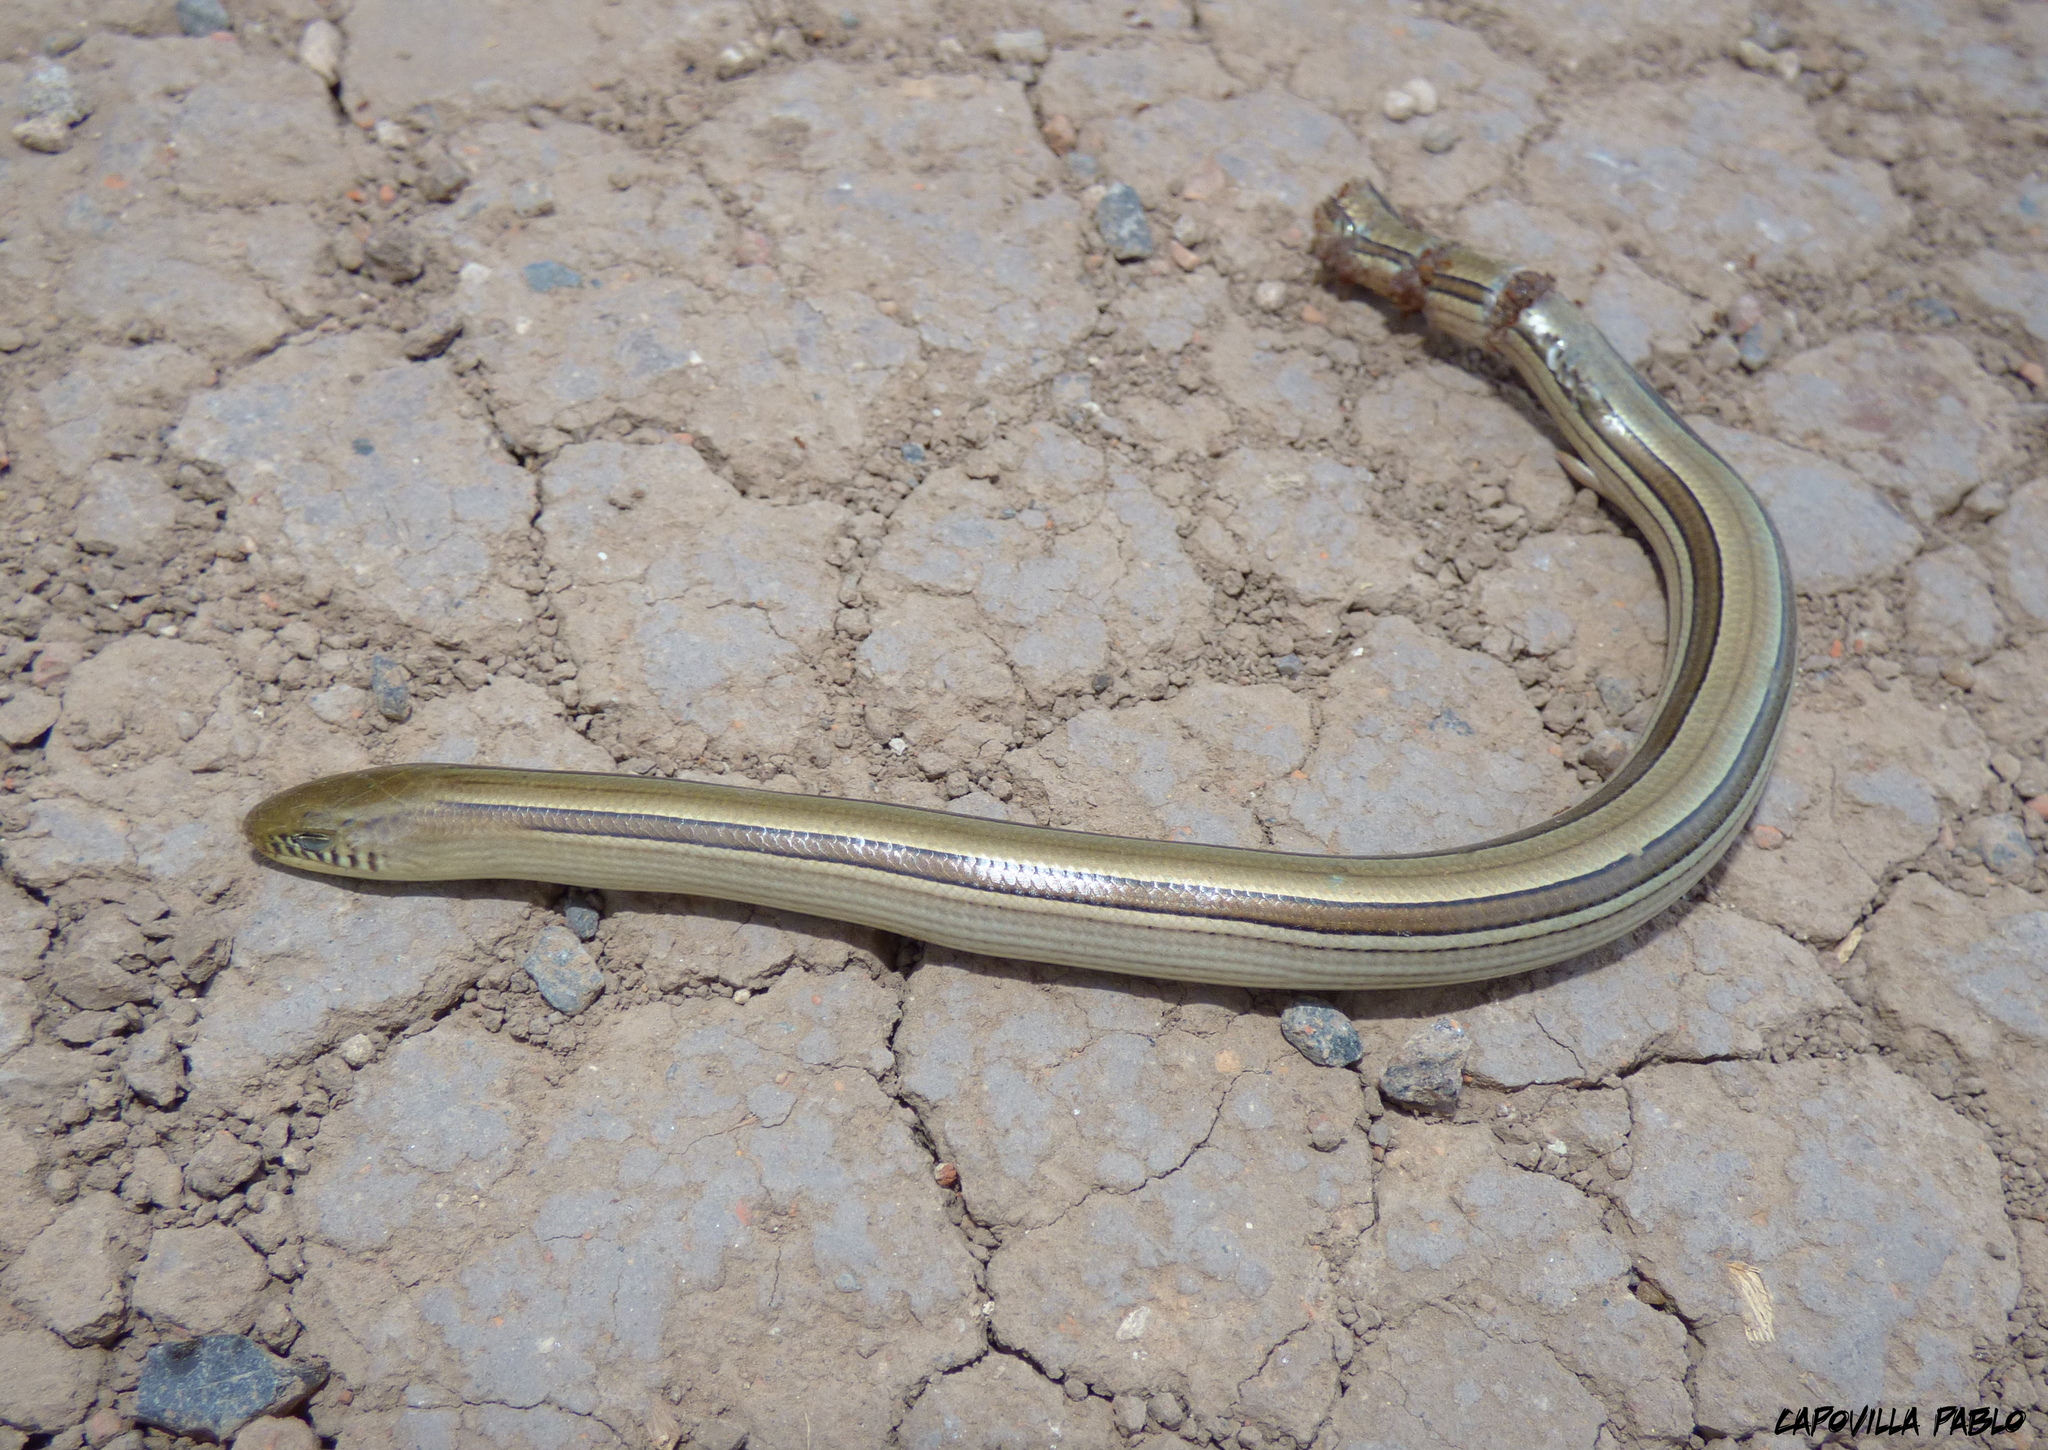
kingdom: Animalia
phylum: Chordata
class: Squamata
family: Diploglossidae
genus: Ophiodes
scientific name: Ophiodes intermedius
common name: Middle worm lizard
